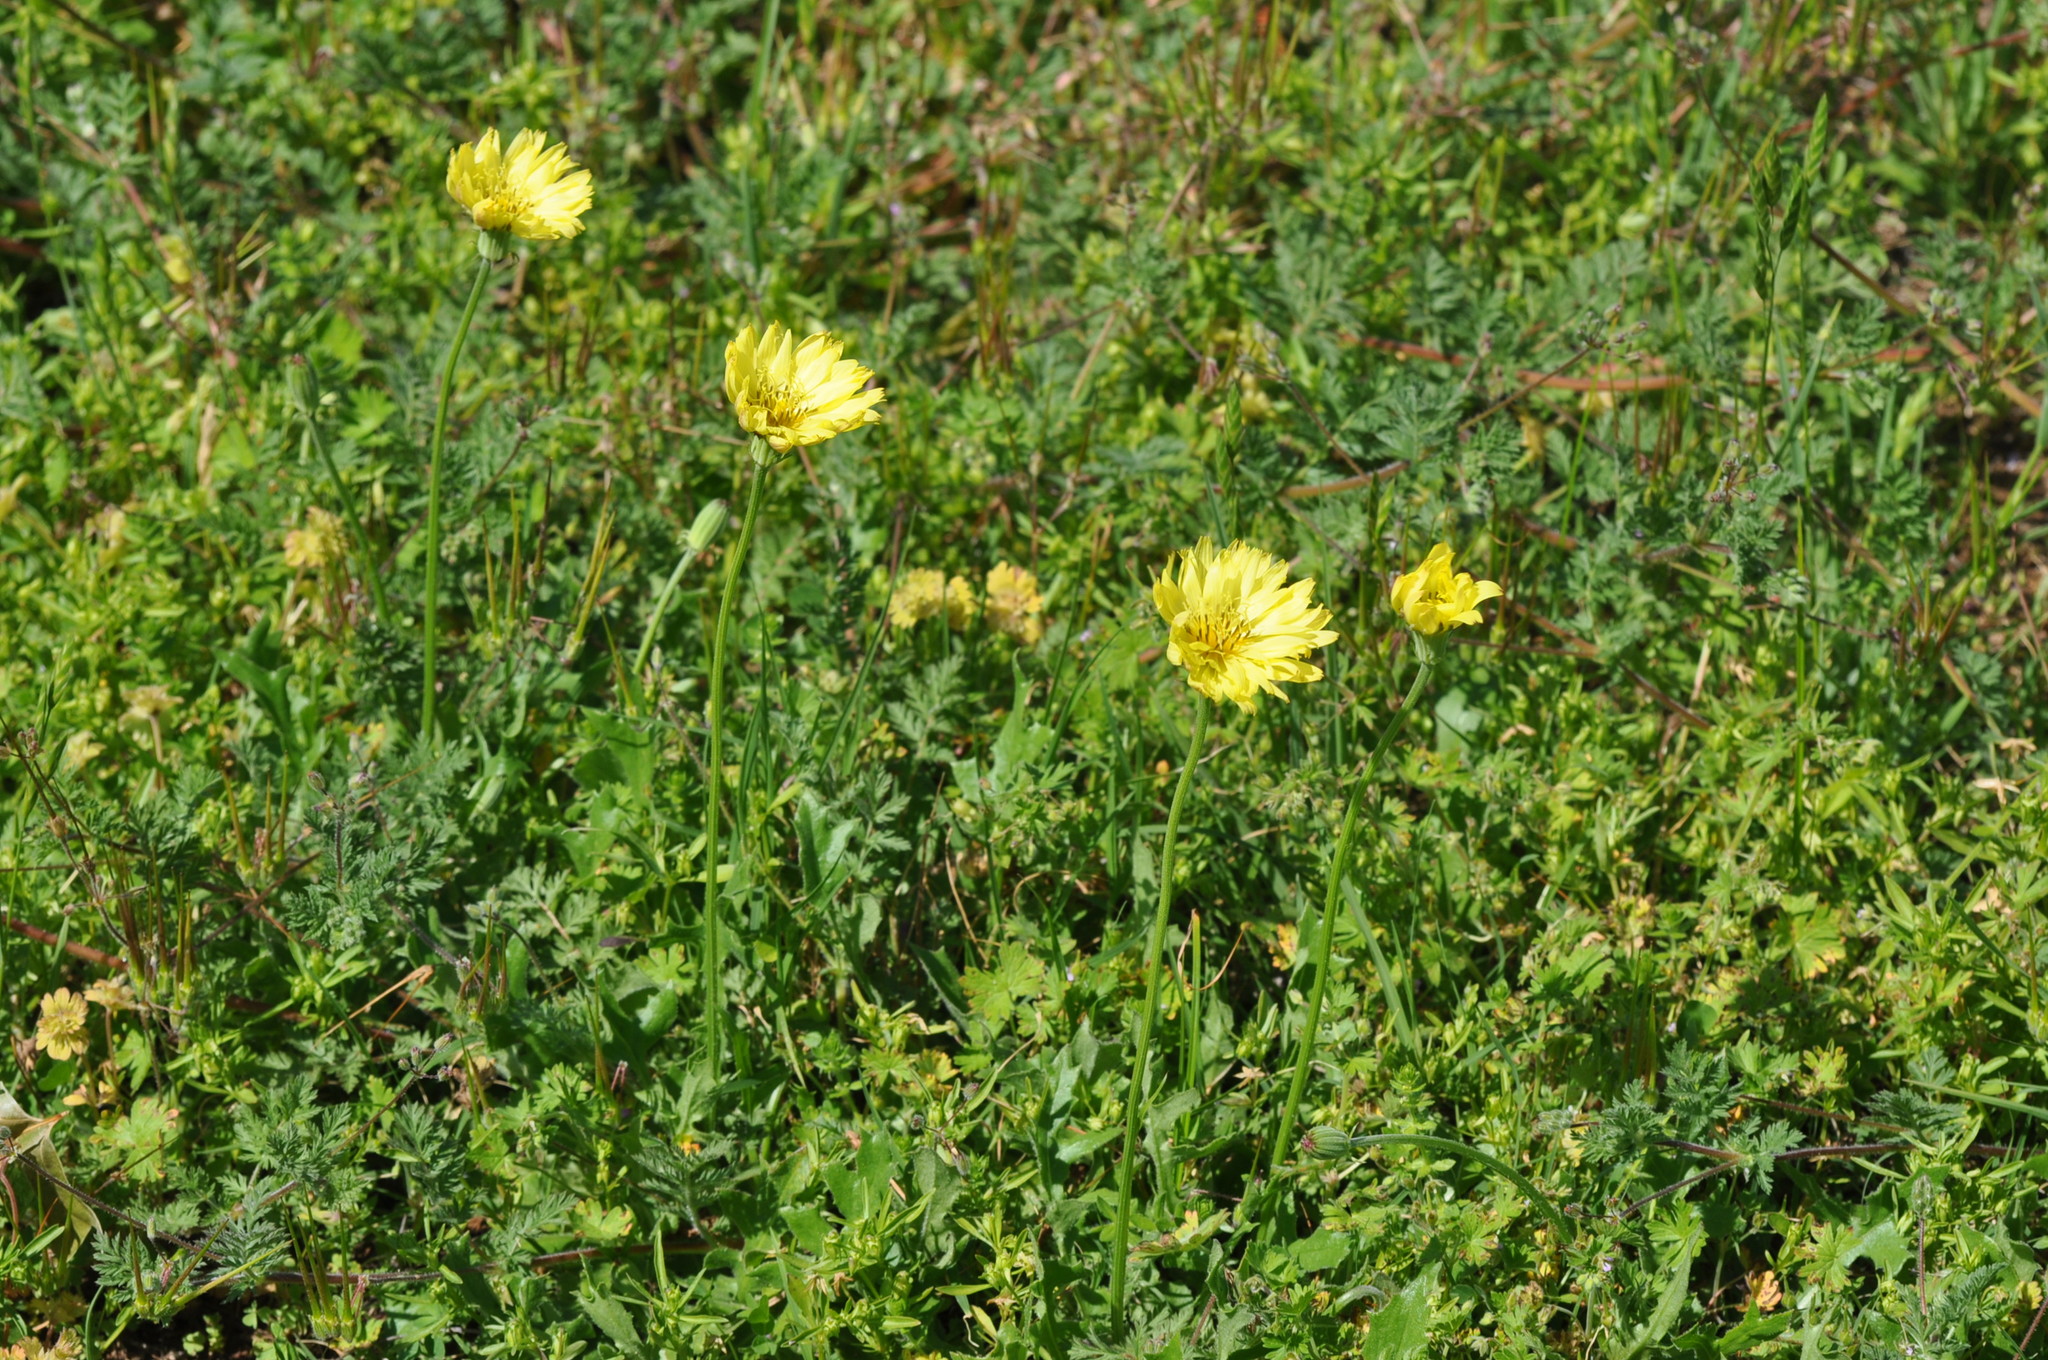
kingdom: Plantae
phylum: Tracheophyta
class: Magnoliopsida
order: Asterales
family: Asteraceae
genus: Pyrrhopappus
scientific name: Pyrrhopappus pauciflorus
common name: Texas false dandelion
